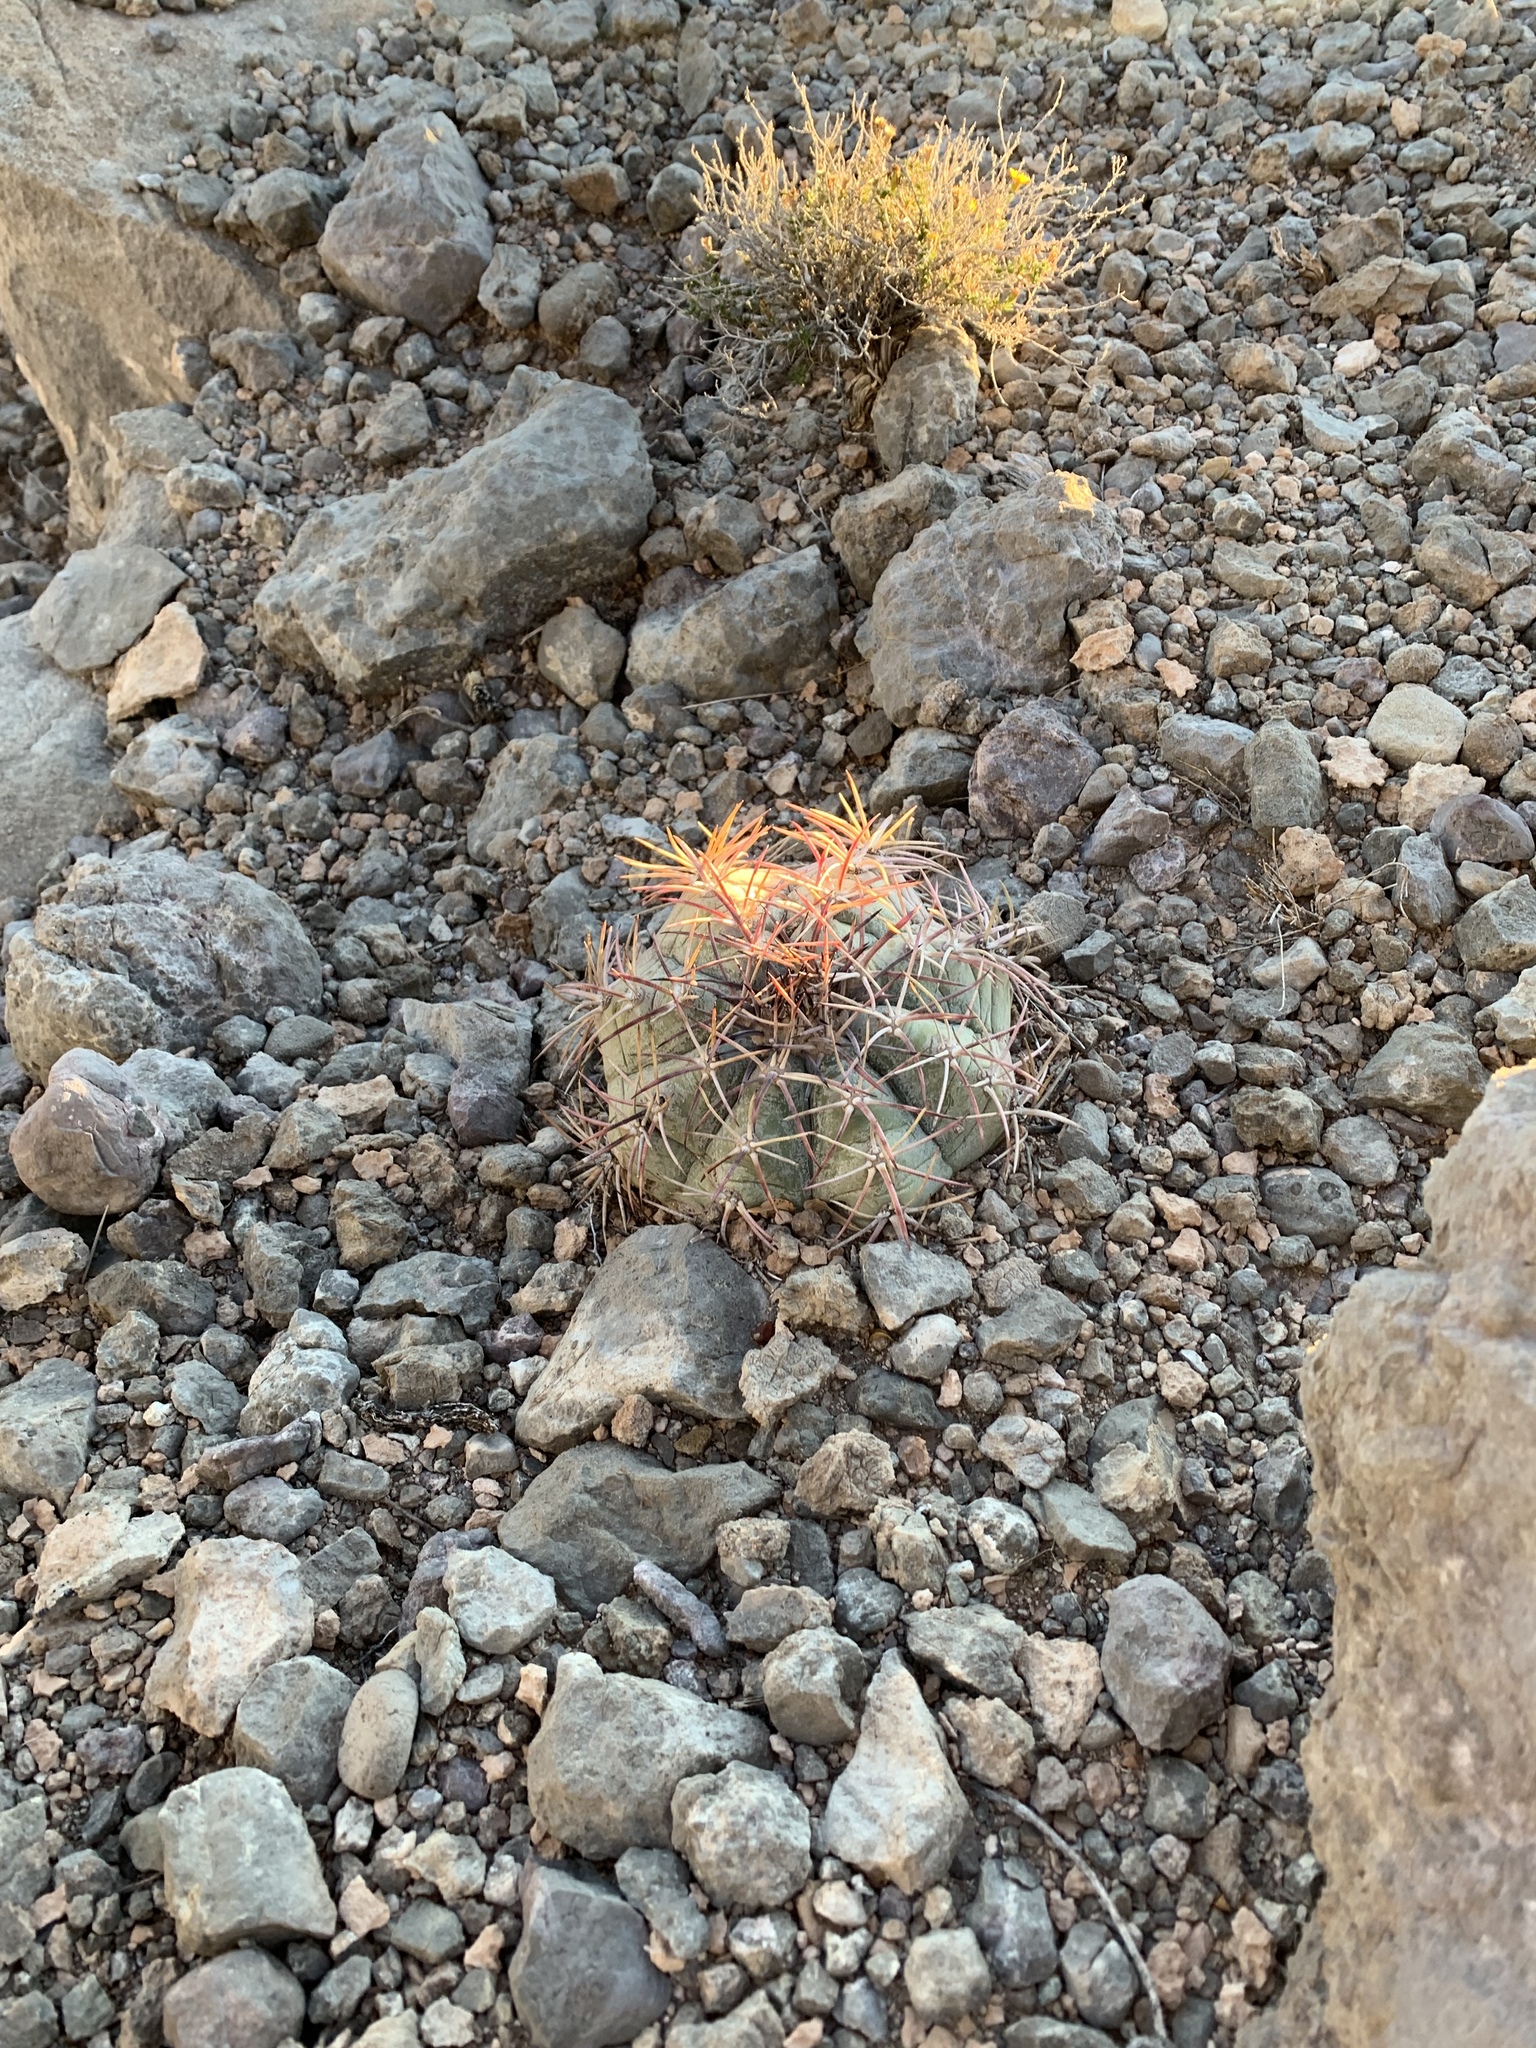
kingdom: Plantae
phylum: Tracheophyta
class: Magnoliopsida
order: Caryophyllales
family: Cactaceae
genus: Echinocactus
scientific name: Echinocactus horizonthalonius
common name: Devilshead
